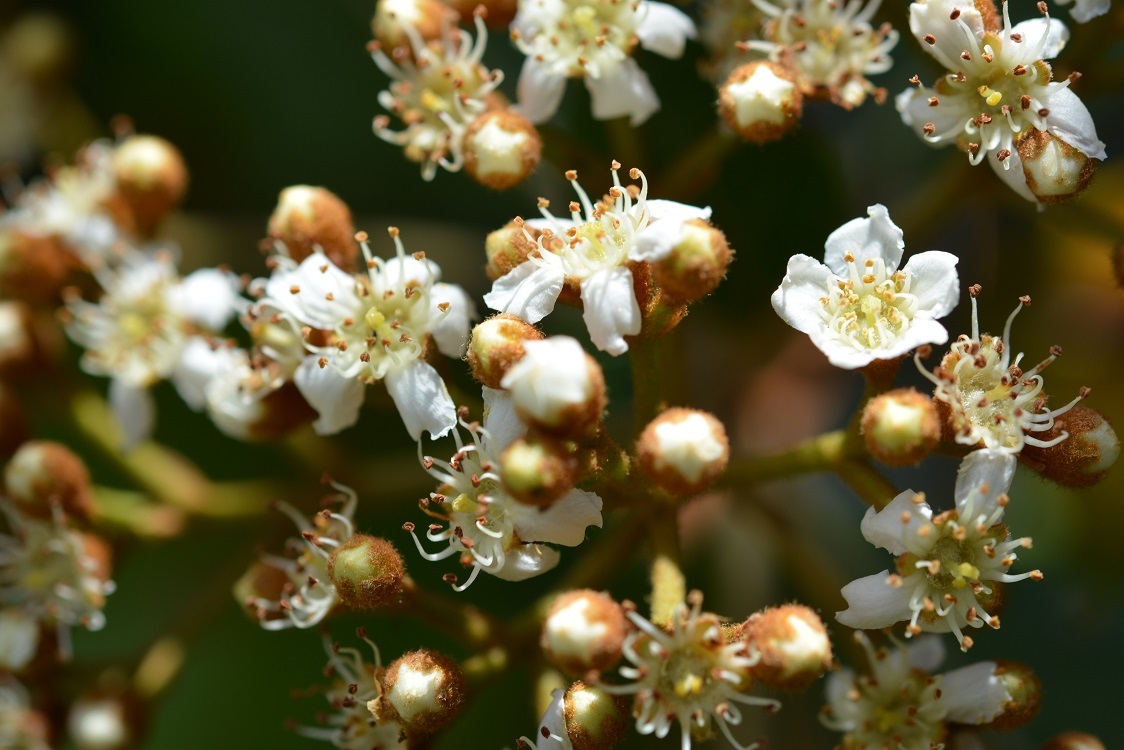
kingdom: Plantae
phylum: Tracheophyta
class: Magnoliopsida
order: Rosales
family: Rosaceae
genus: Phippsiomeles
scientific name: Phippsiomeles matudae
